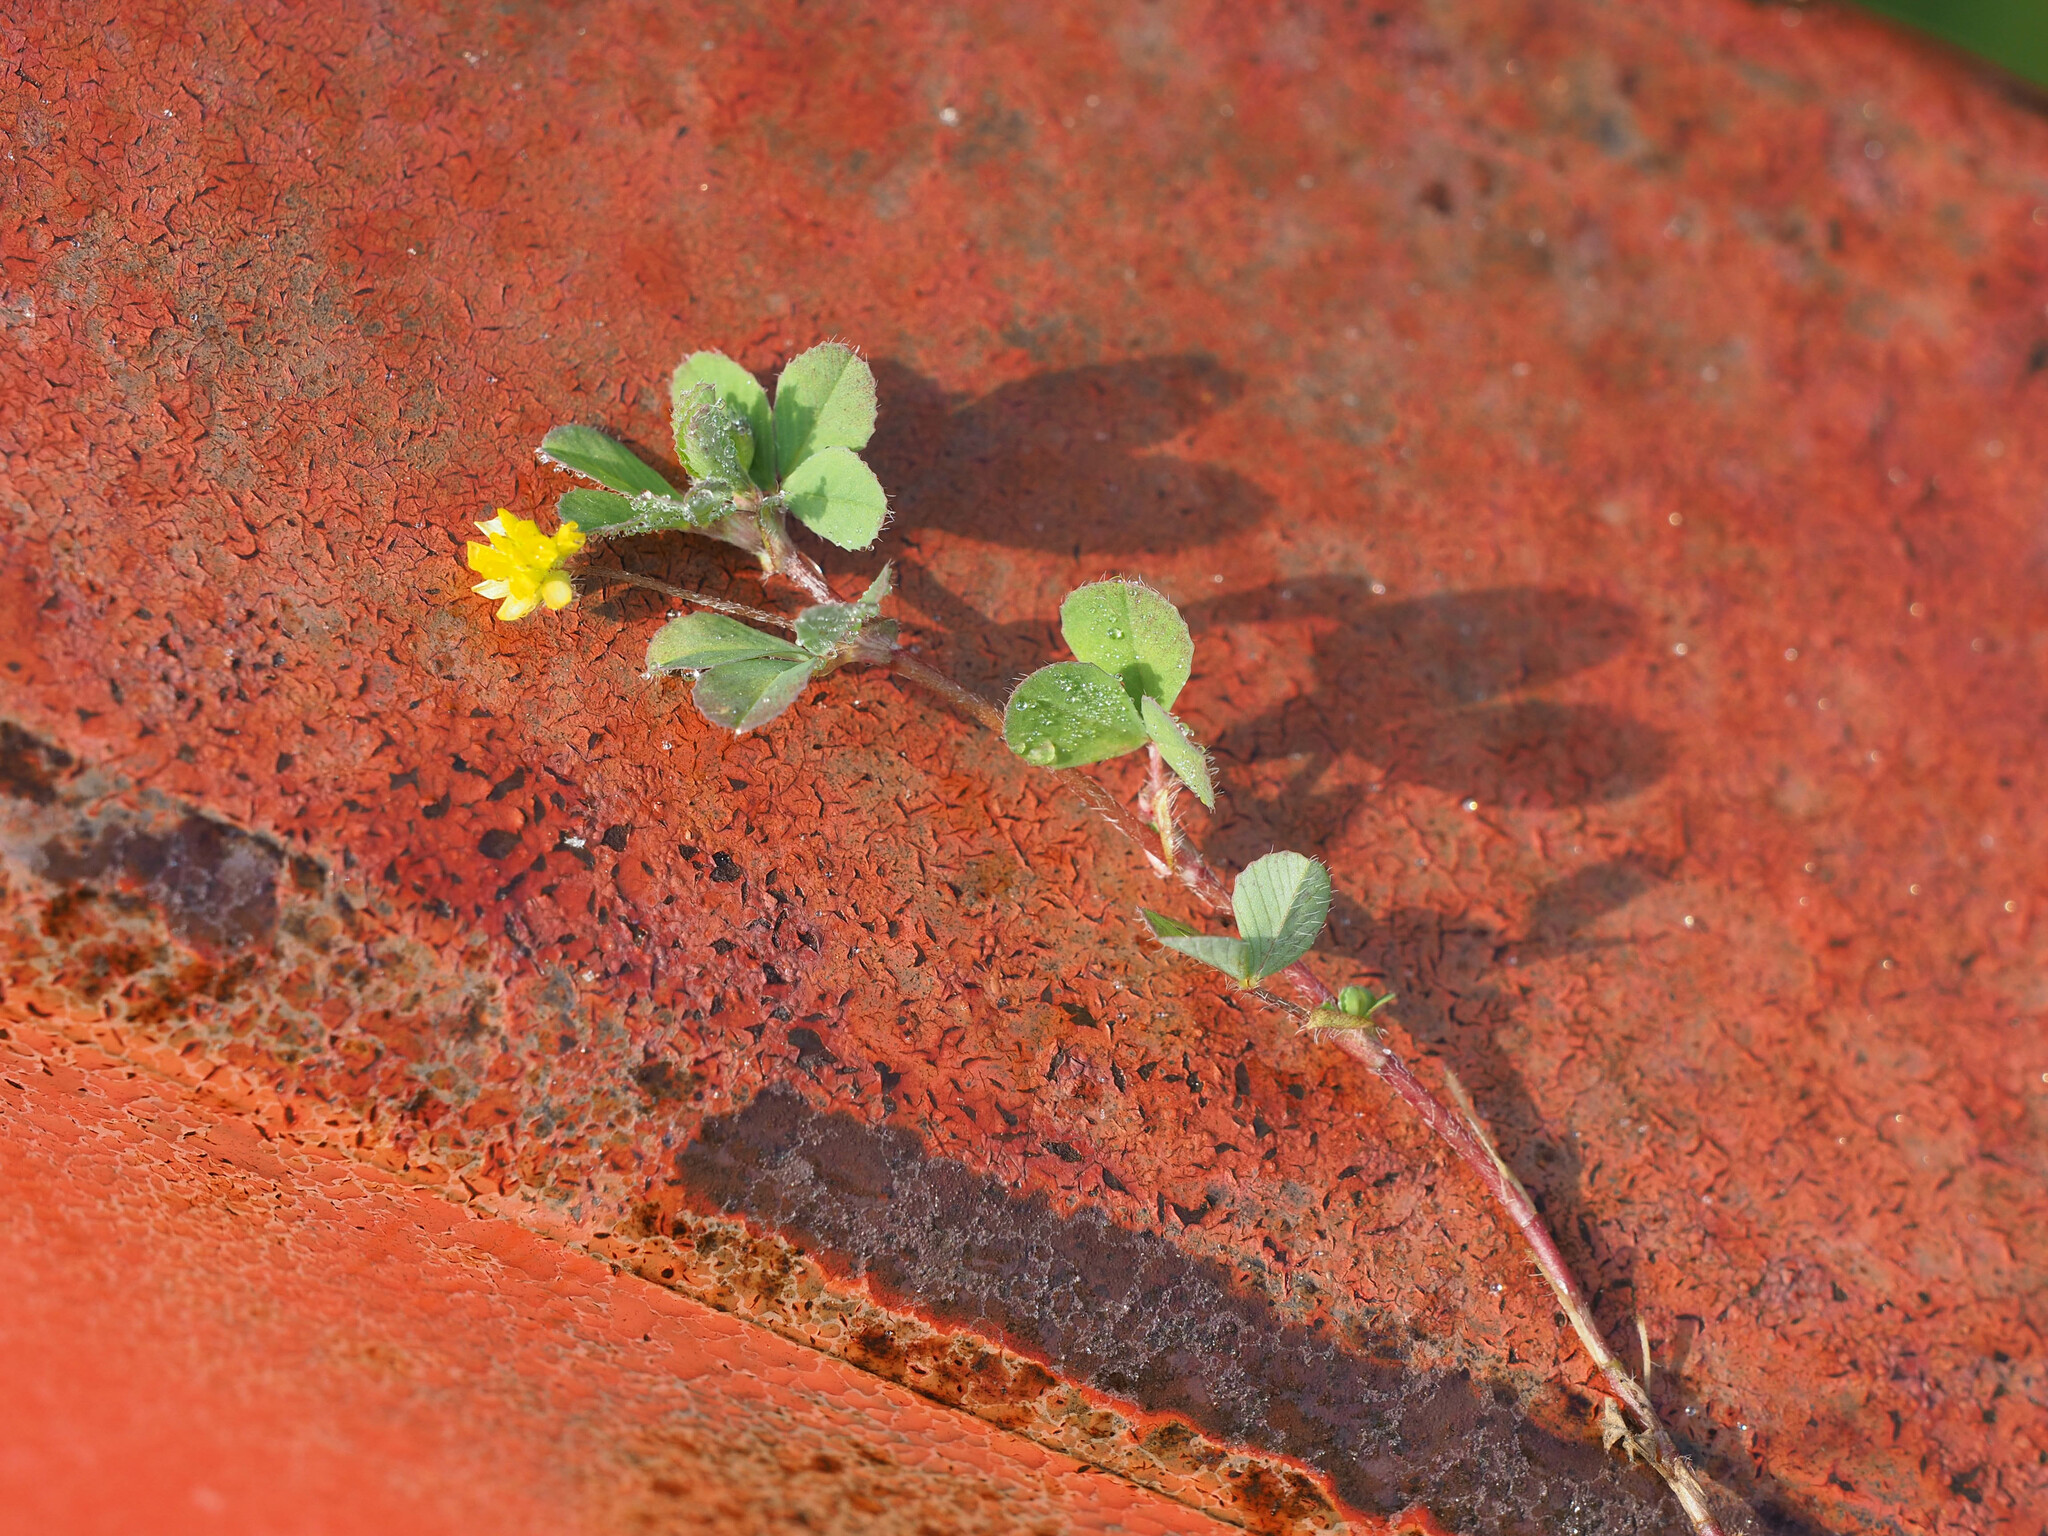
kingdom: Plantae
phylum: Tracheophyta
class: Magnoliopsida
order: Fabales
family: Fabaceae
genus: Trifolium
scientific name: Trifolium dubium
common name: Suckling clover
